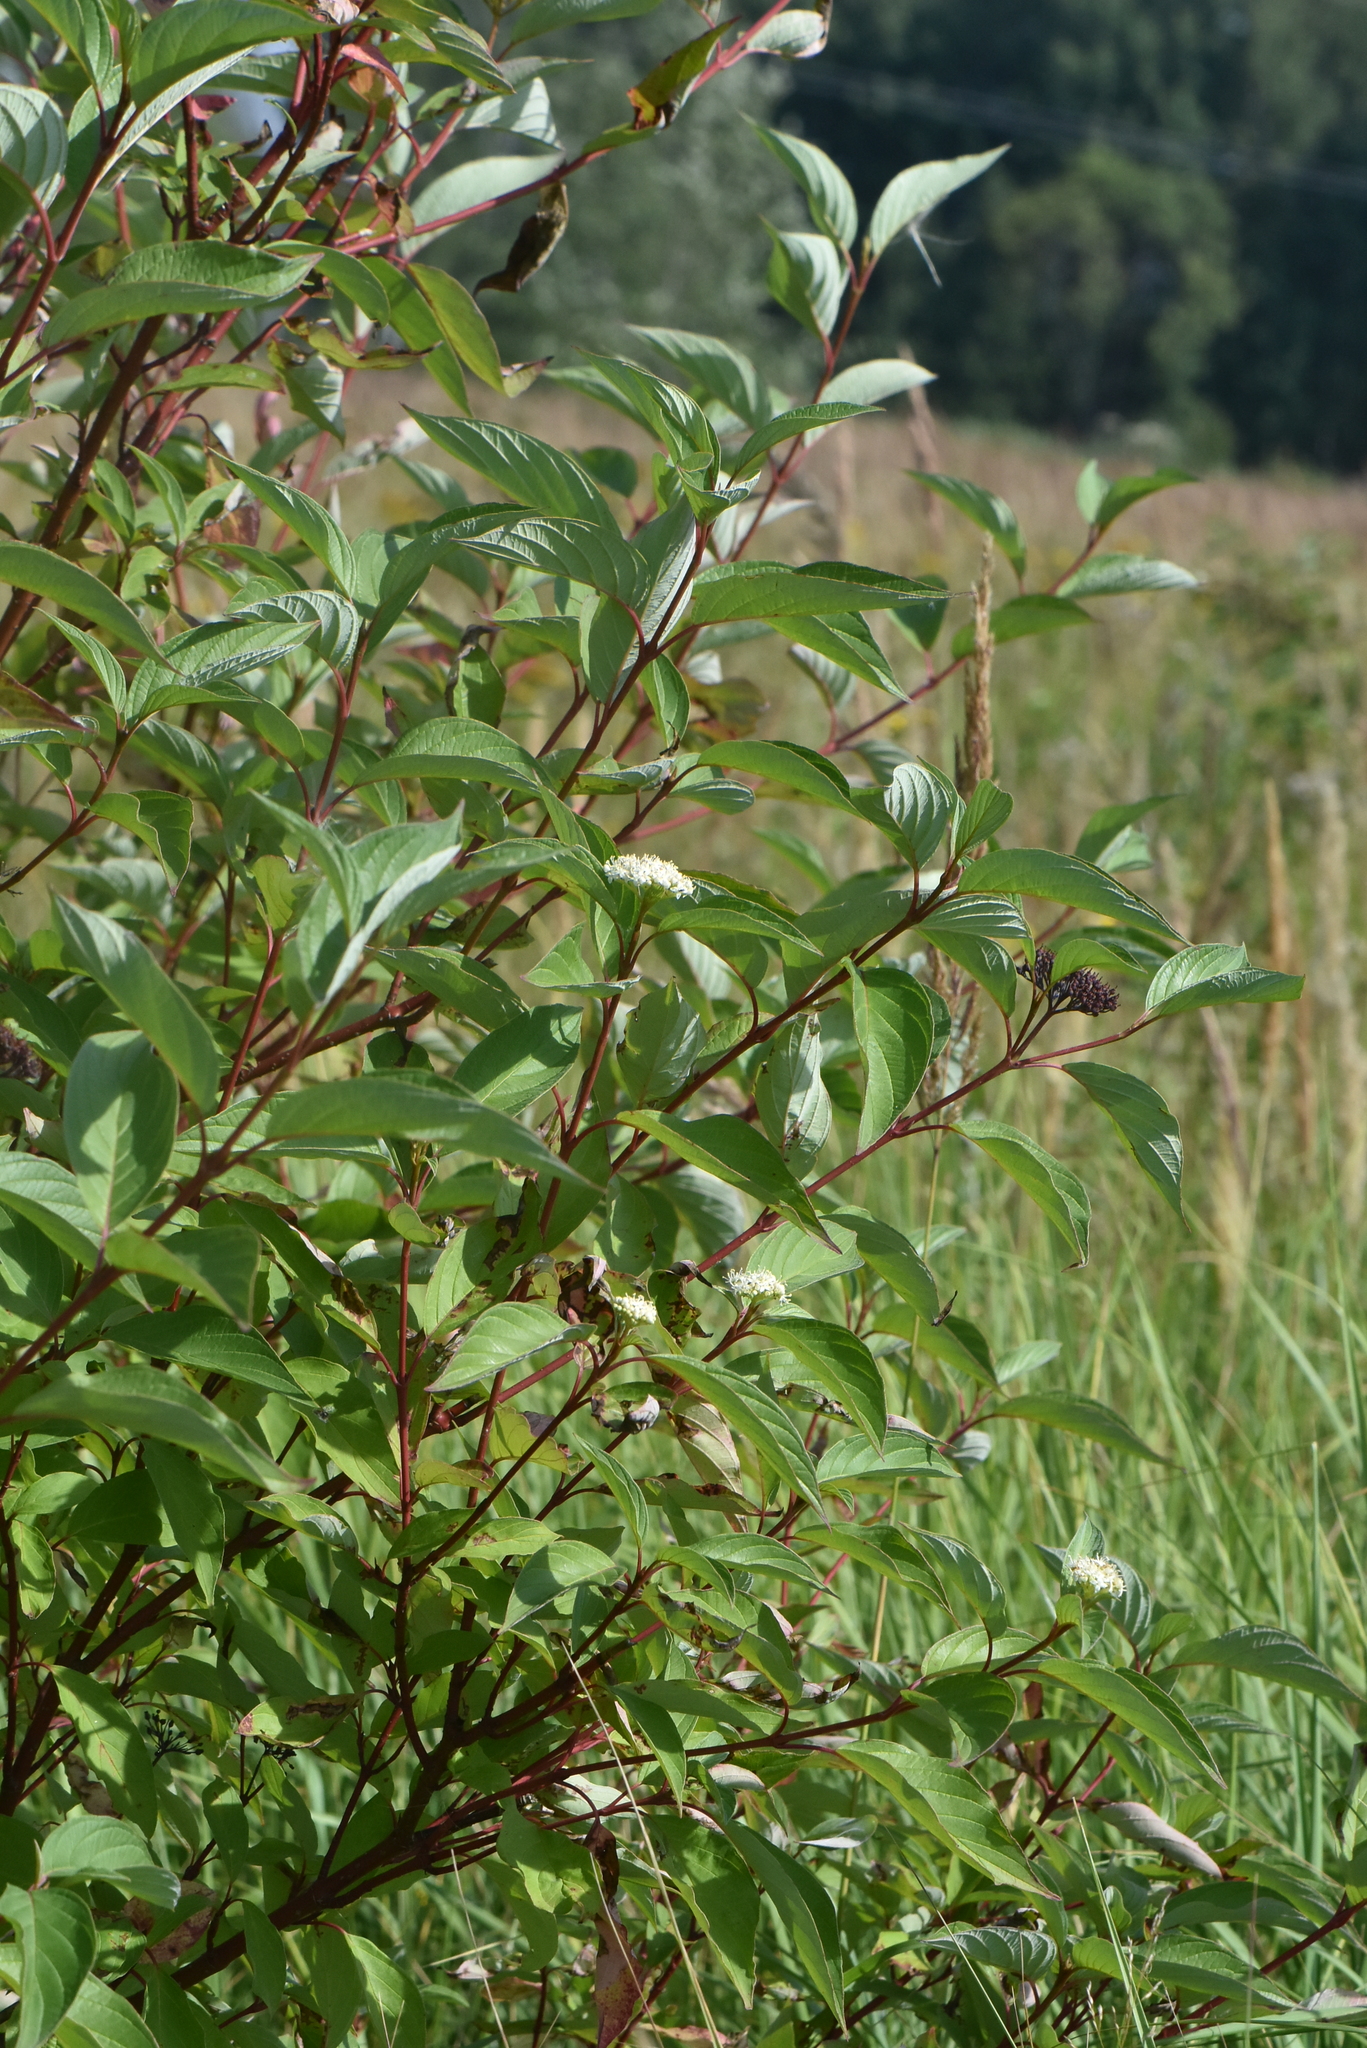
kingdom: Plantae
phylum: Tracheophyta
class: Magnoliopsida
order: Cornales
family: Cornaceae
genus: Cornus
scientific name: Cornus alba
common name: White dogwood
